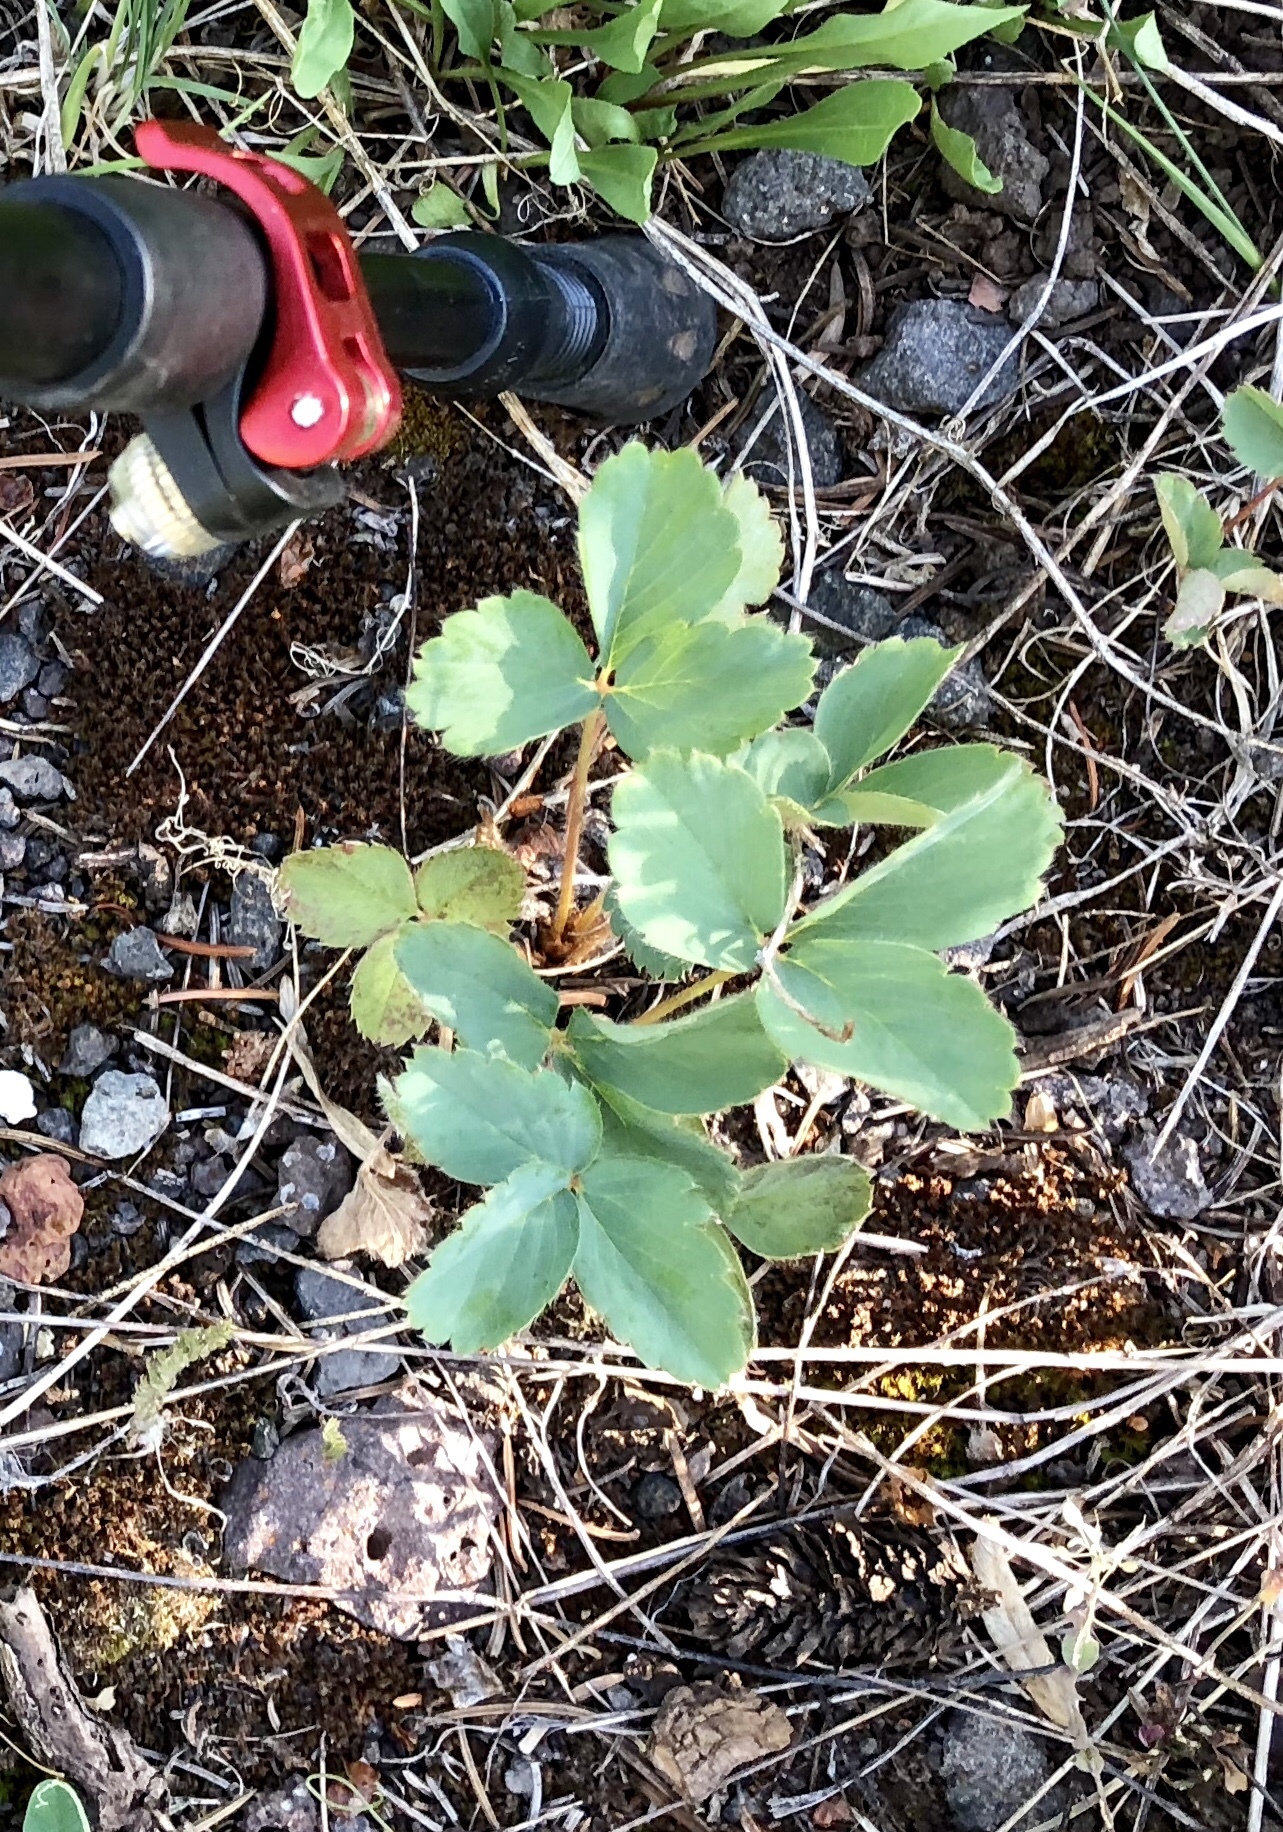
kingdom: Plantae
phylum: Tracheophyta
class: Magnoliopsida
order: Rosales
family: Rosaceae
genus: Fragaria
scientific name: Fragaria virginiana
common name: Thickleaved wild strawberry
